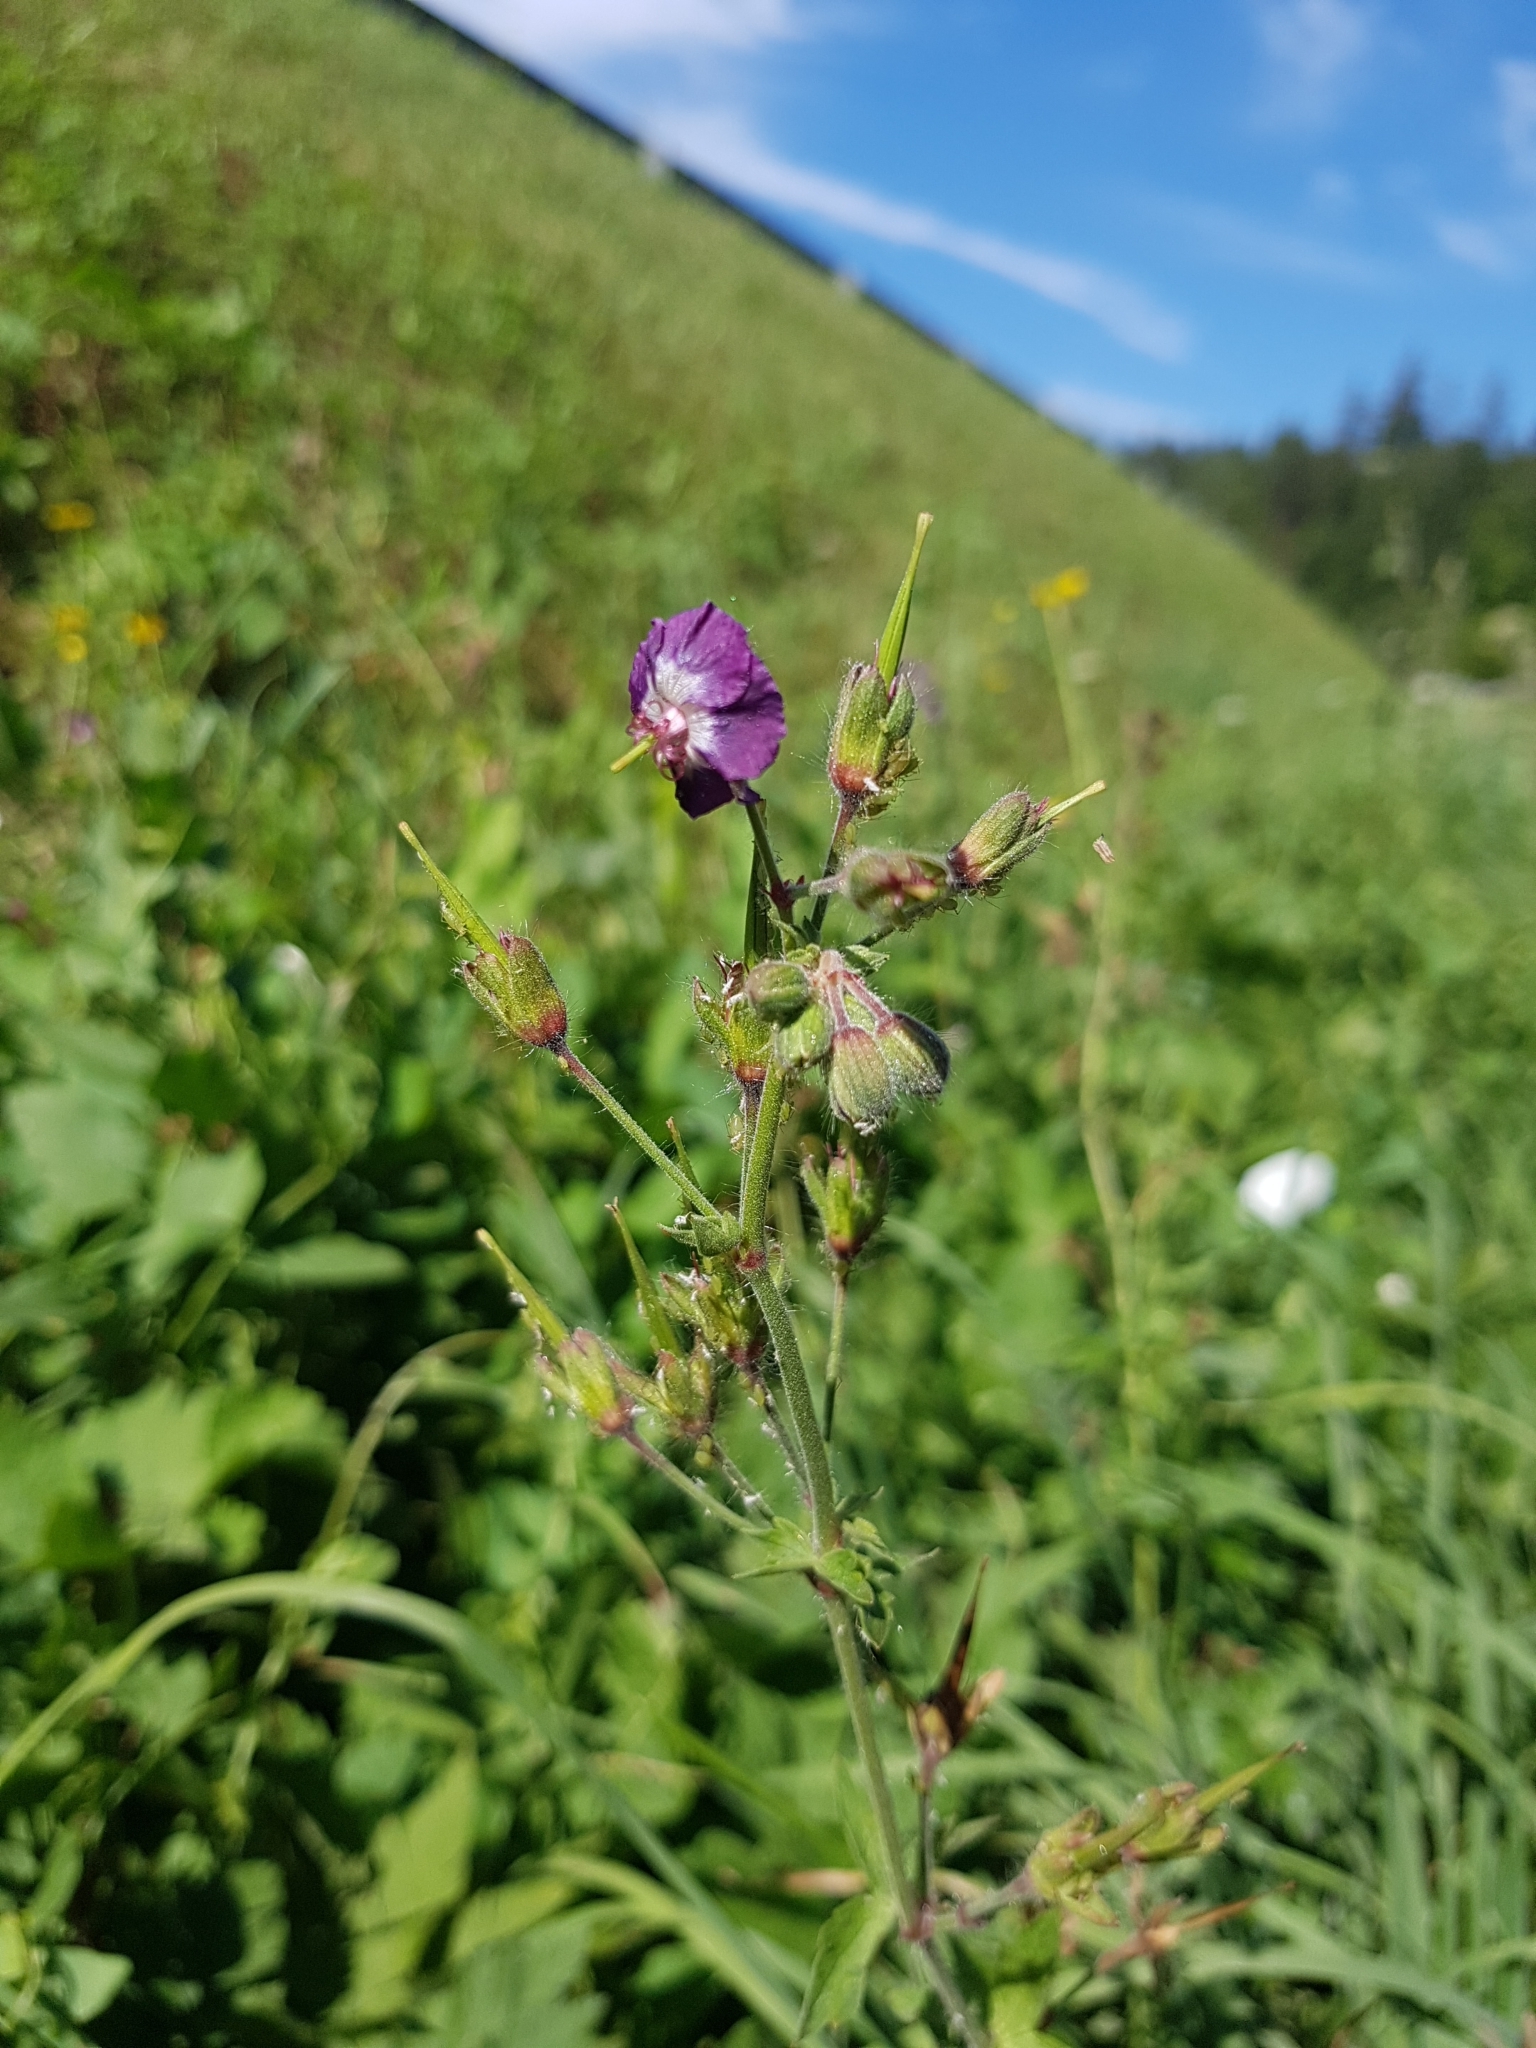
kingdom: Plantae
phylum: Tracheophyta
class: Magnoliopsida
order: Geraniales
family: Geraniaceae
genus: Geranium
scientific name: Geranium phaeum
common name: Dusky crane's-bill
